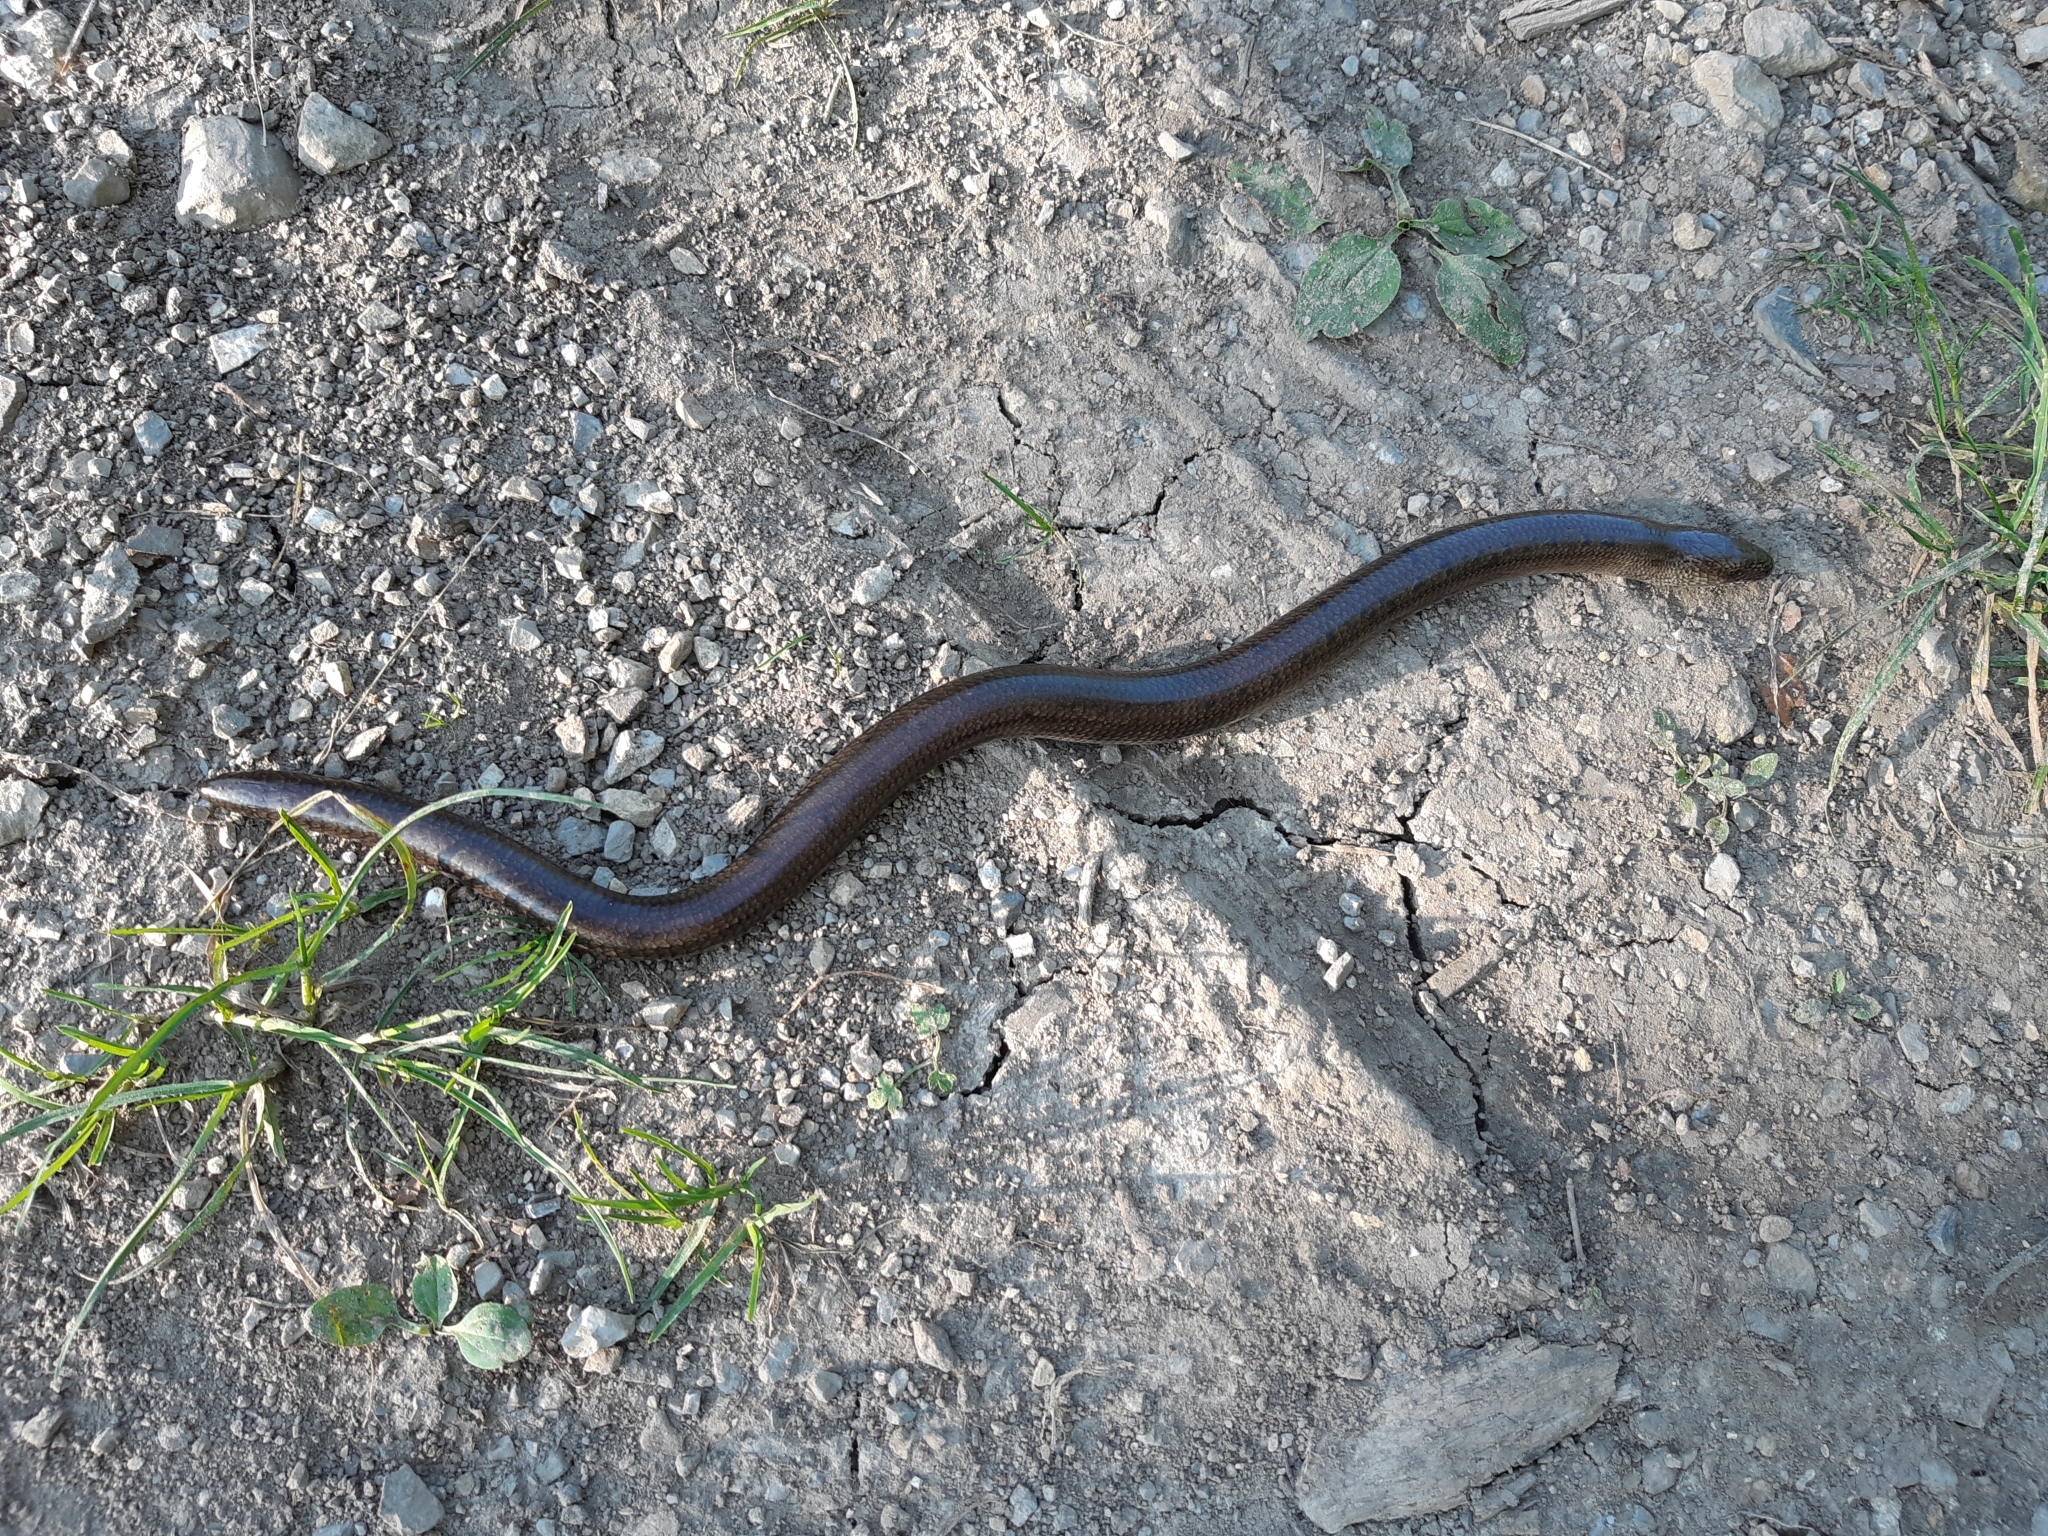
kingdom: Animalia
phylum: Chordata
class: Squamata
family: Anguidae
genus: Anguis
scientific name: Anguis colchica
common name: Slow worm
